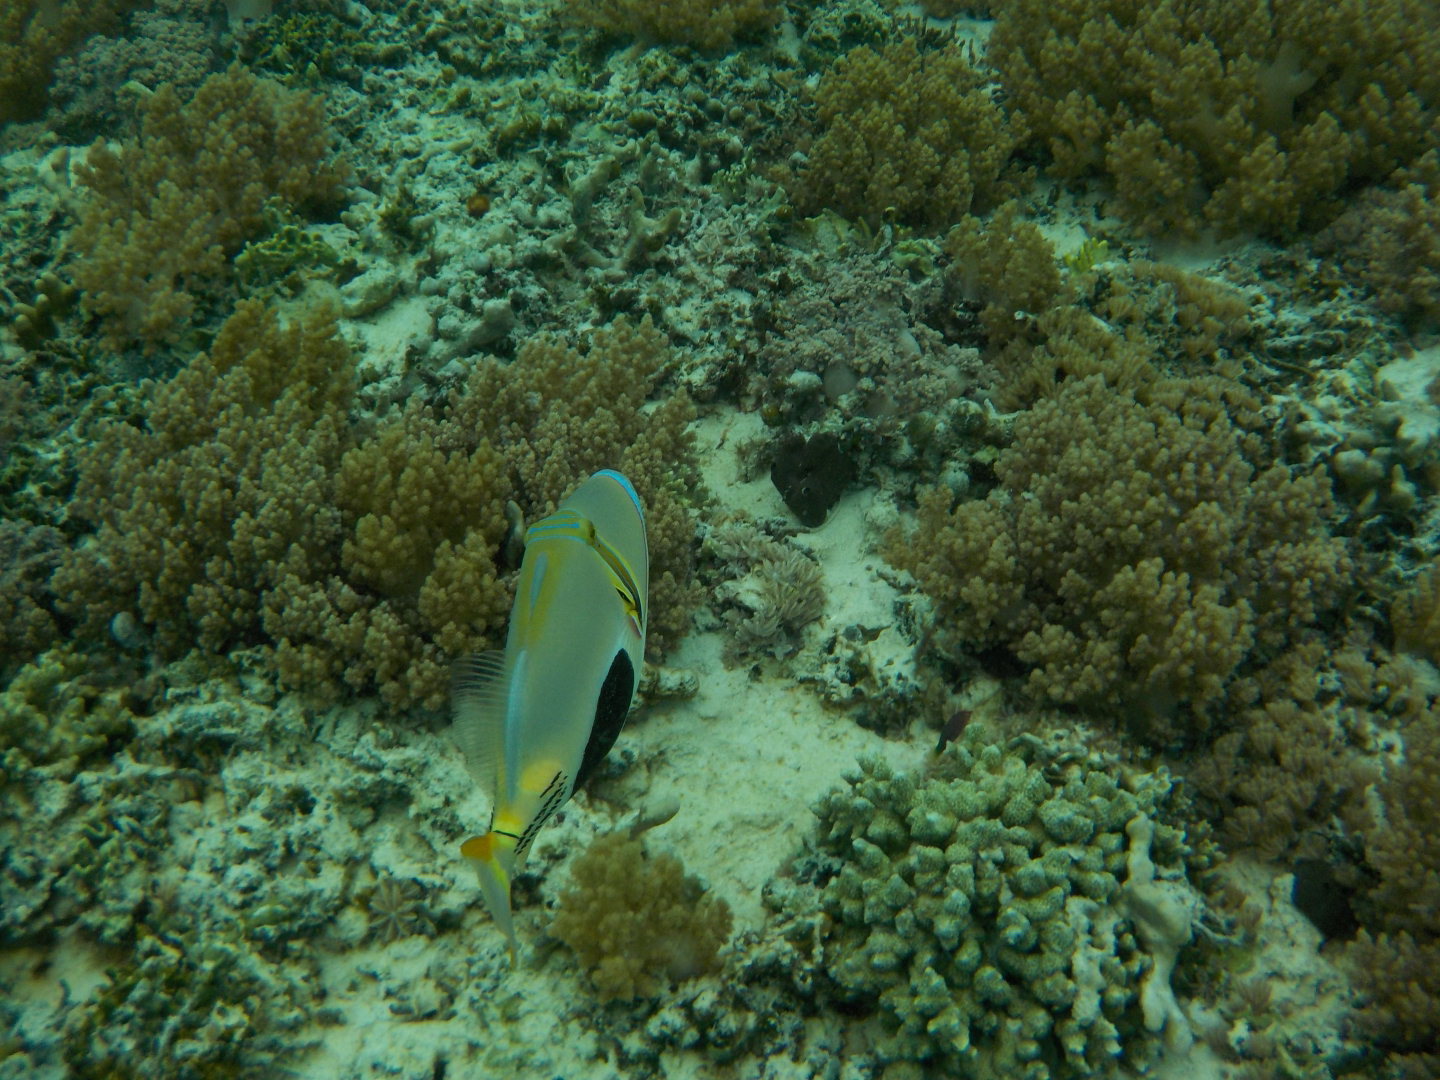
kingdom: Animalia
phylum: Chordata
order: Tetraodontiformes
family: Balistidae
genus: Rhinecanthus
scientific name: Rhinecanthus verrucosus
